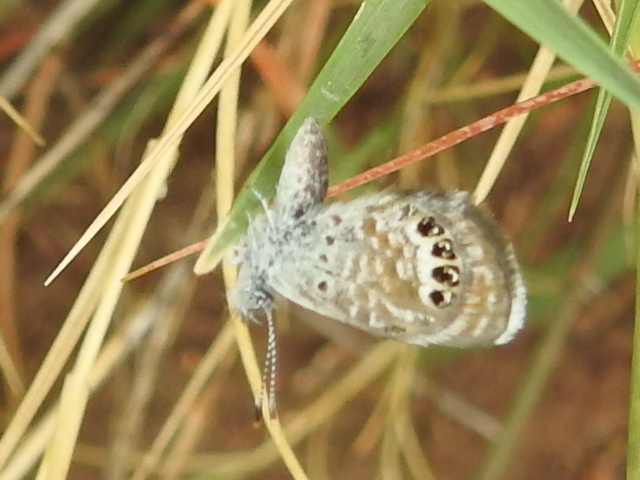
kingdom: Animalia
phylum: Arthropoda
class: Insecta
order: Lepidoptera
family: Lycaenidae
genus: Brephidium
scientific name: Brephidium exilis
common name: Pygmy blue
